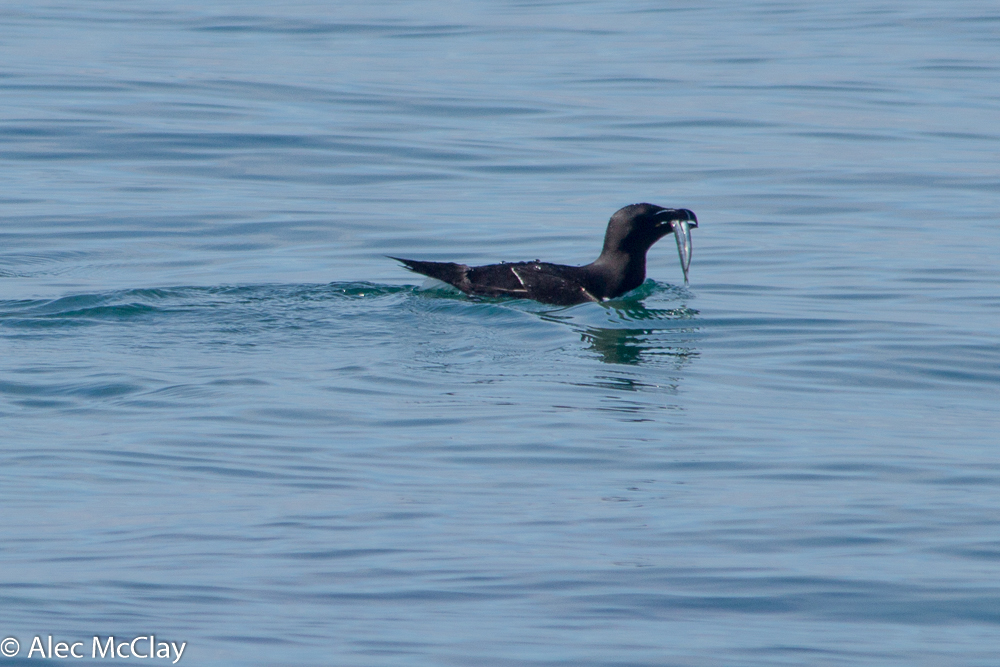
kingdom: Animalia
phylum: Chordata
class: Aves
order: Charadriiformes
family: Alcidae
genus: Alca
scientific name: Alca torda
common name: Razorbill
